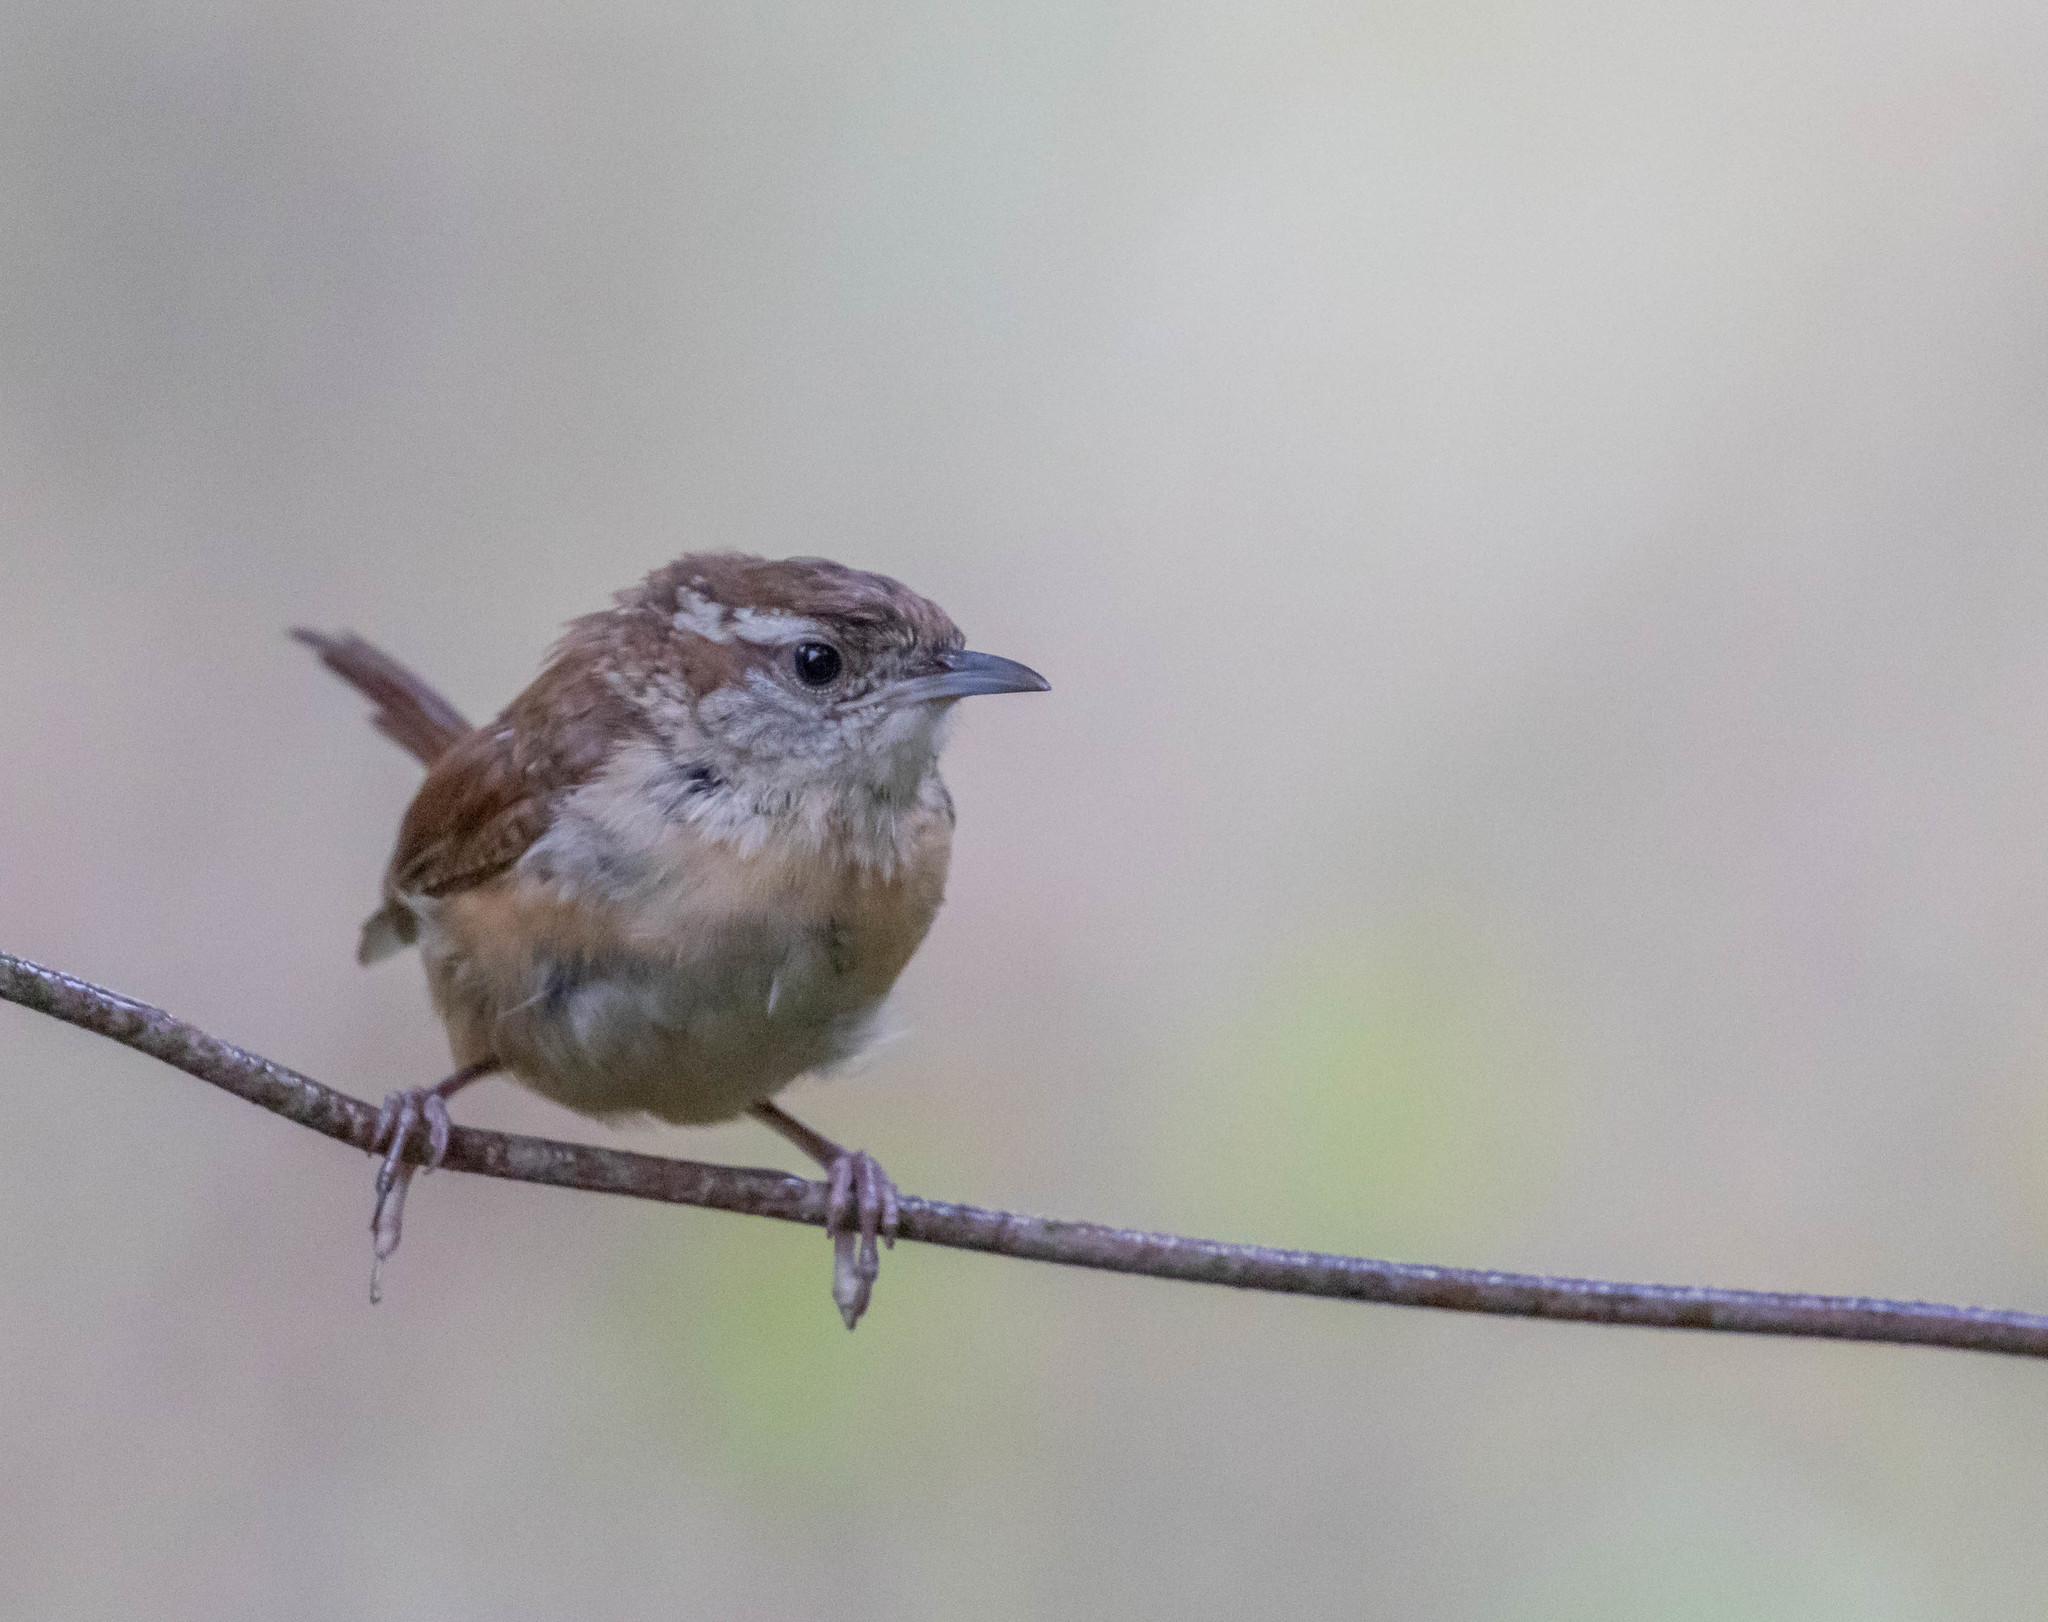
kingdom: Animalia
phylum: Chordata
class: Aves
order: Passeriformes
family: Troglodytidae
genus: Thryothorus
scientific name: Thryothorus ludovicianus
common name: Carolina wren
